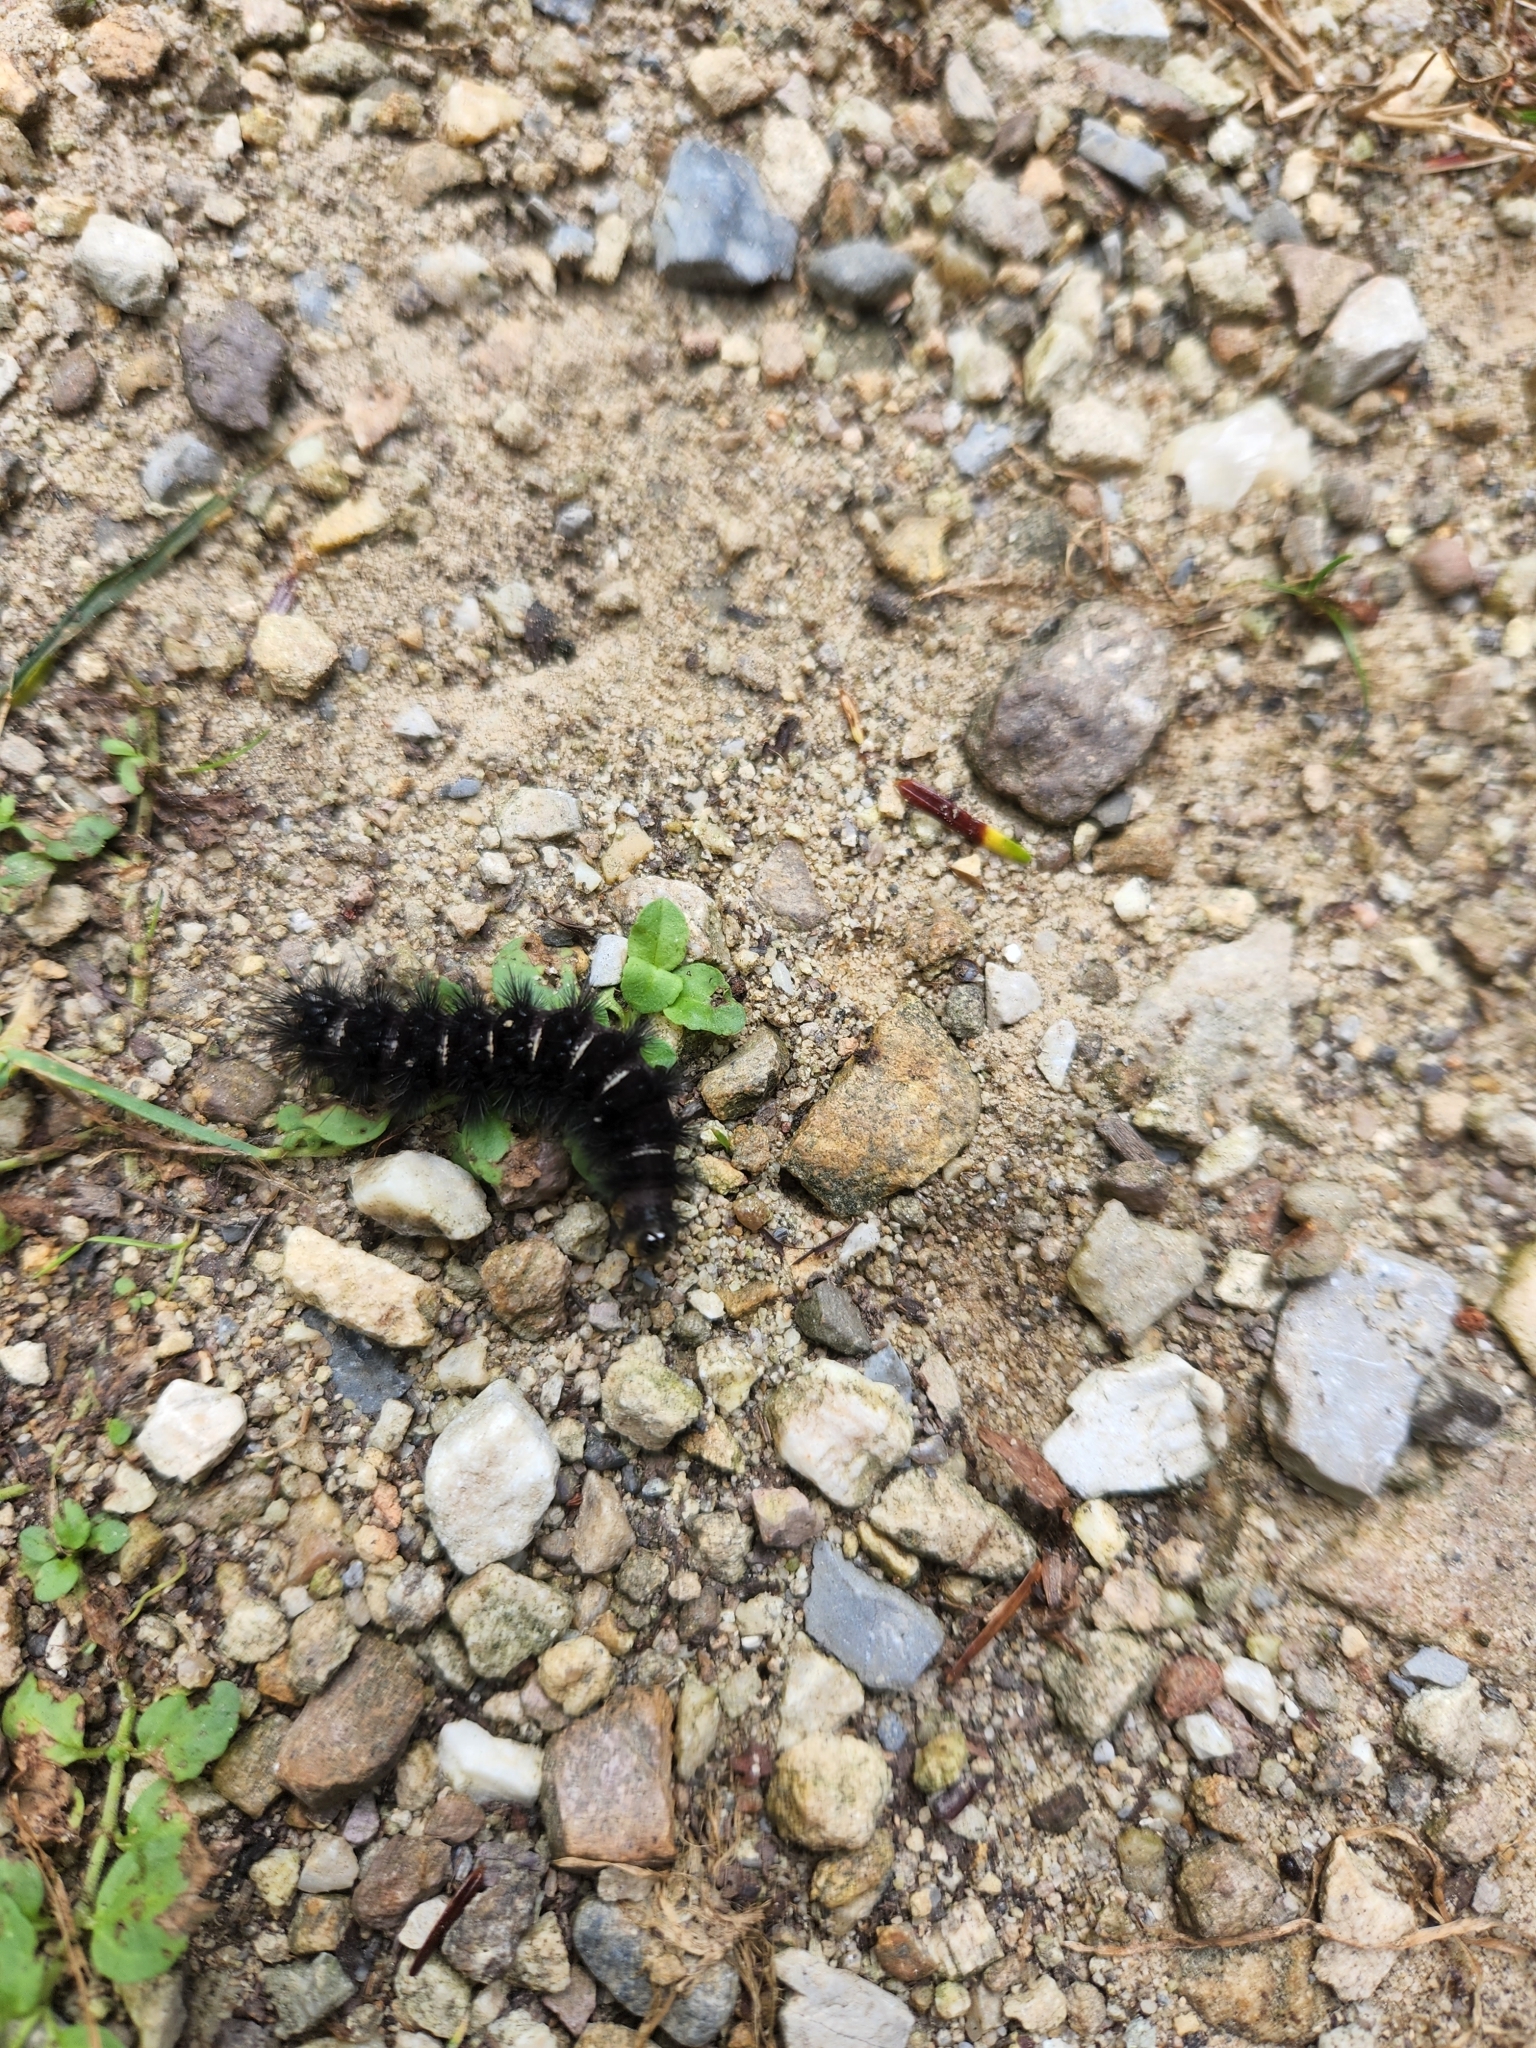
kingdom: Animalia
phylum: Arthropoda
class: Insecta
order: Lepidoptera
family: Erebidae
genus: Spilosoma
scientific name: Spilosoma congrua
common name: Agreeable tiger moth
